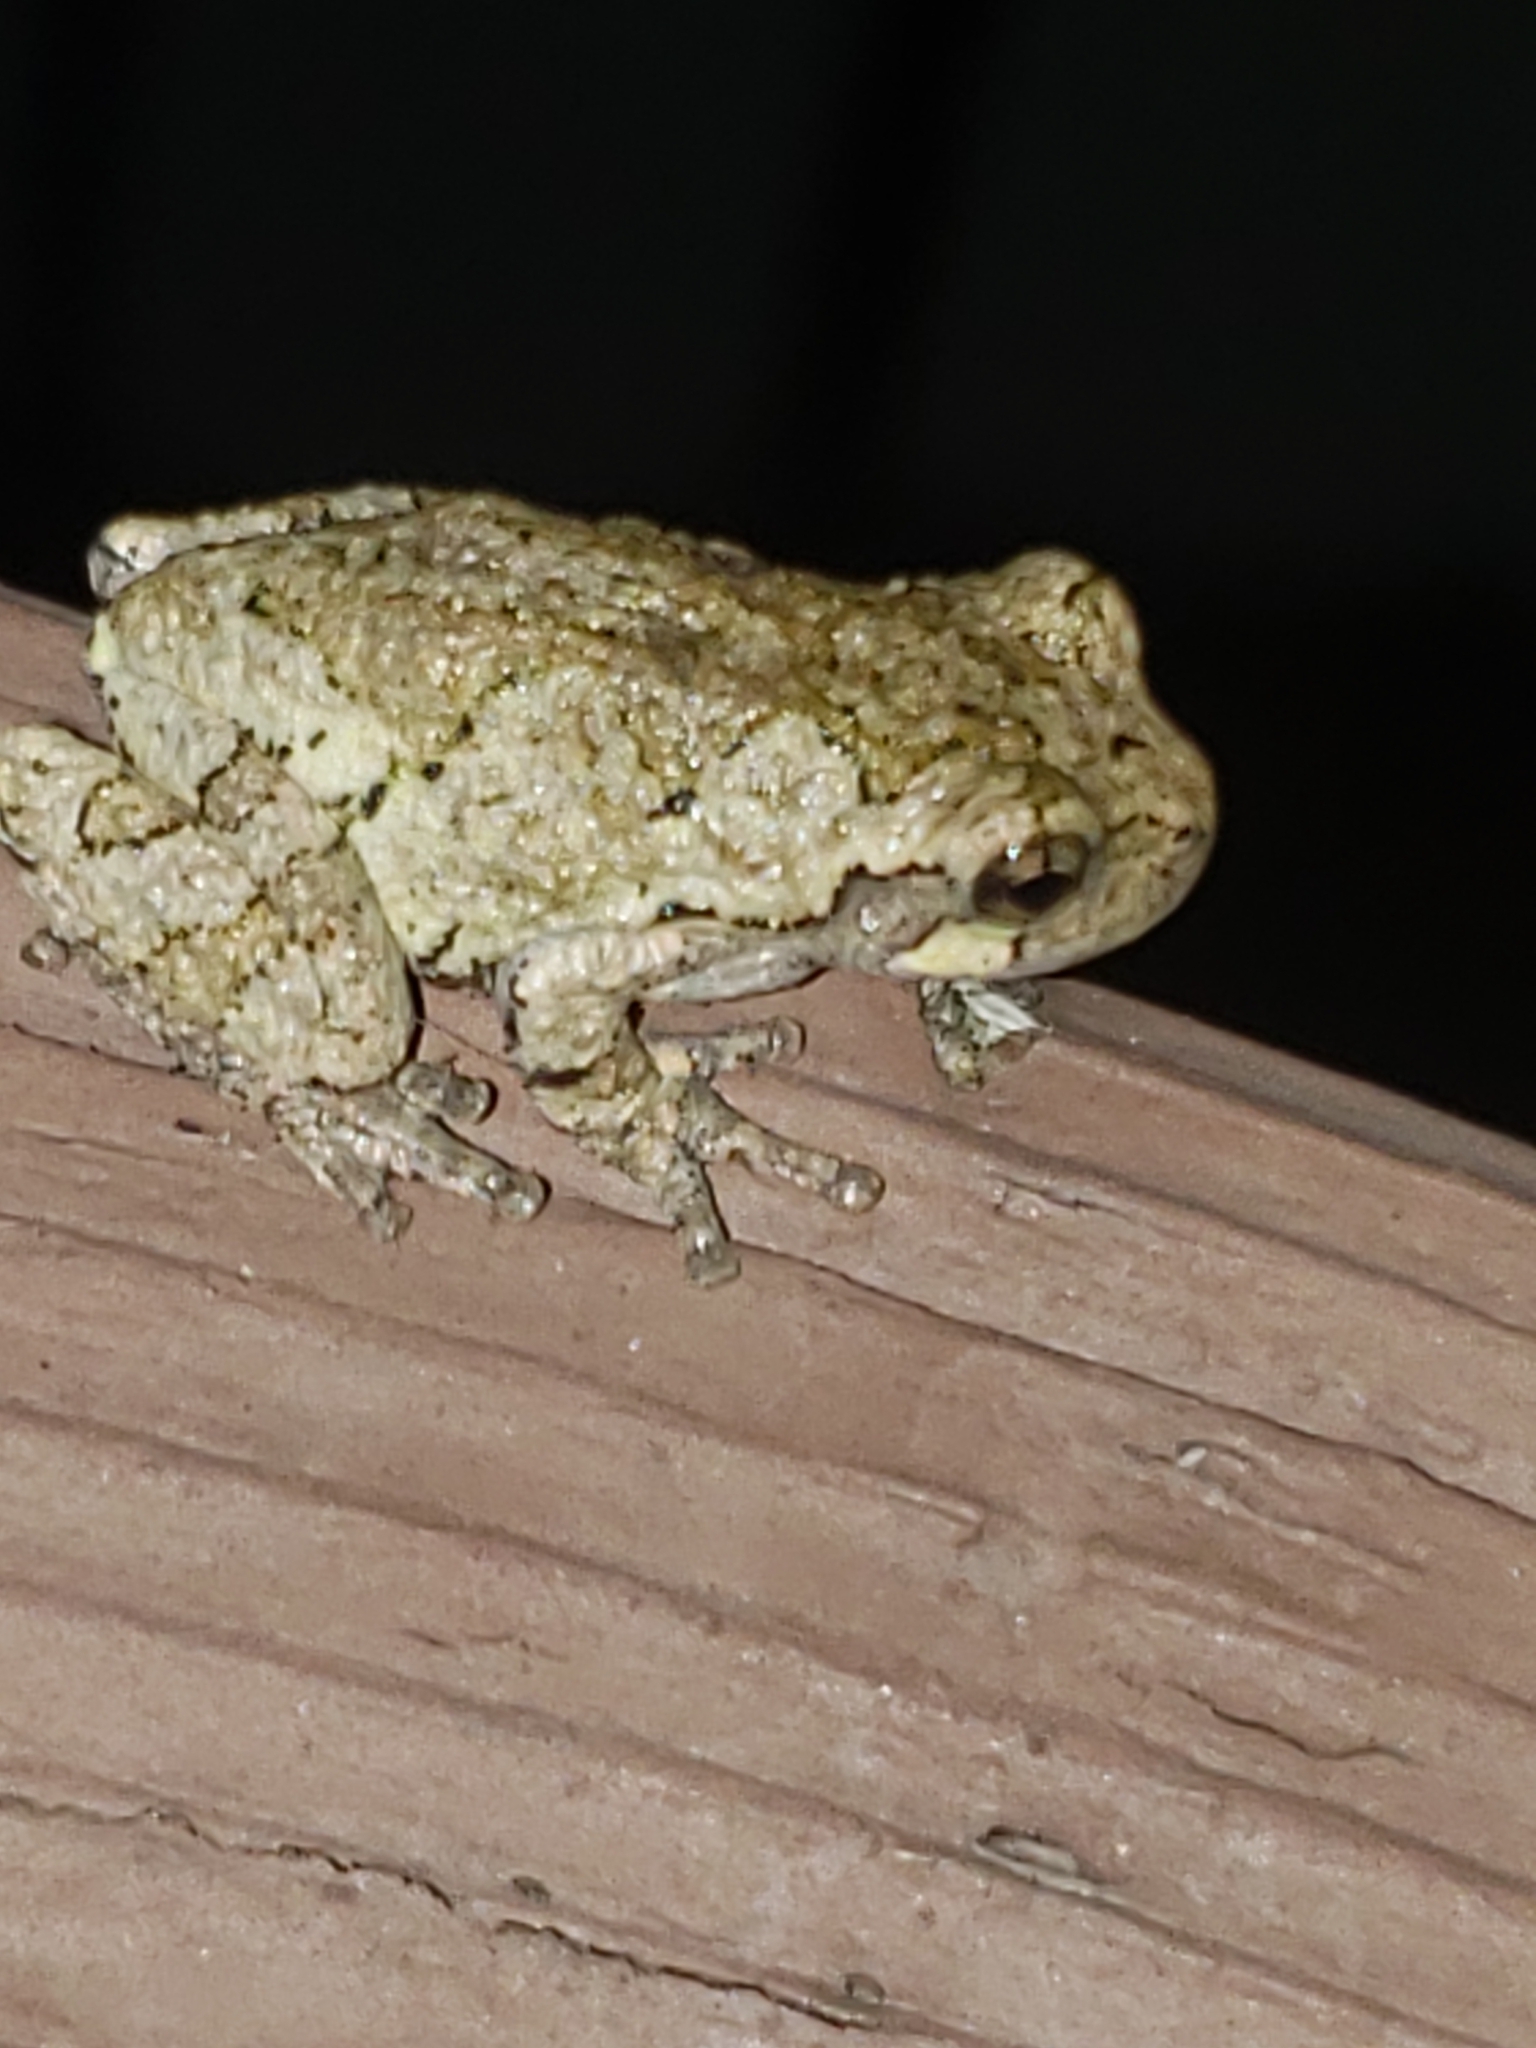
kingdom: Animalia
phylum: Chordata
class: Amphibia
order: Anura
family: Hylidae
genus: Hyla
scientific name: Hyla
